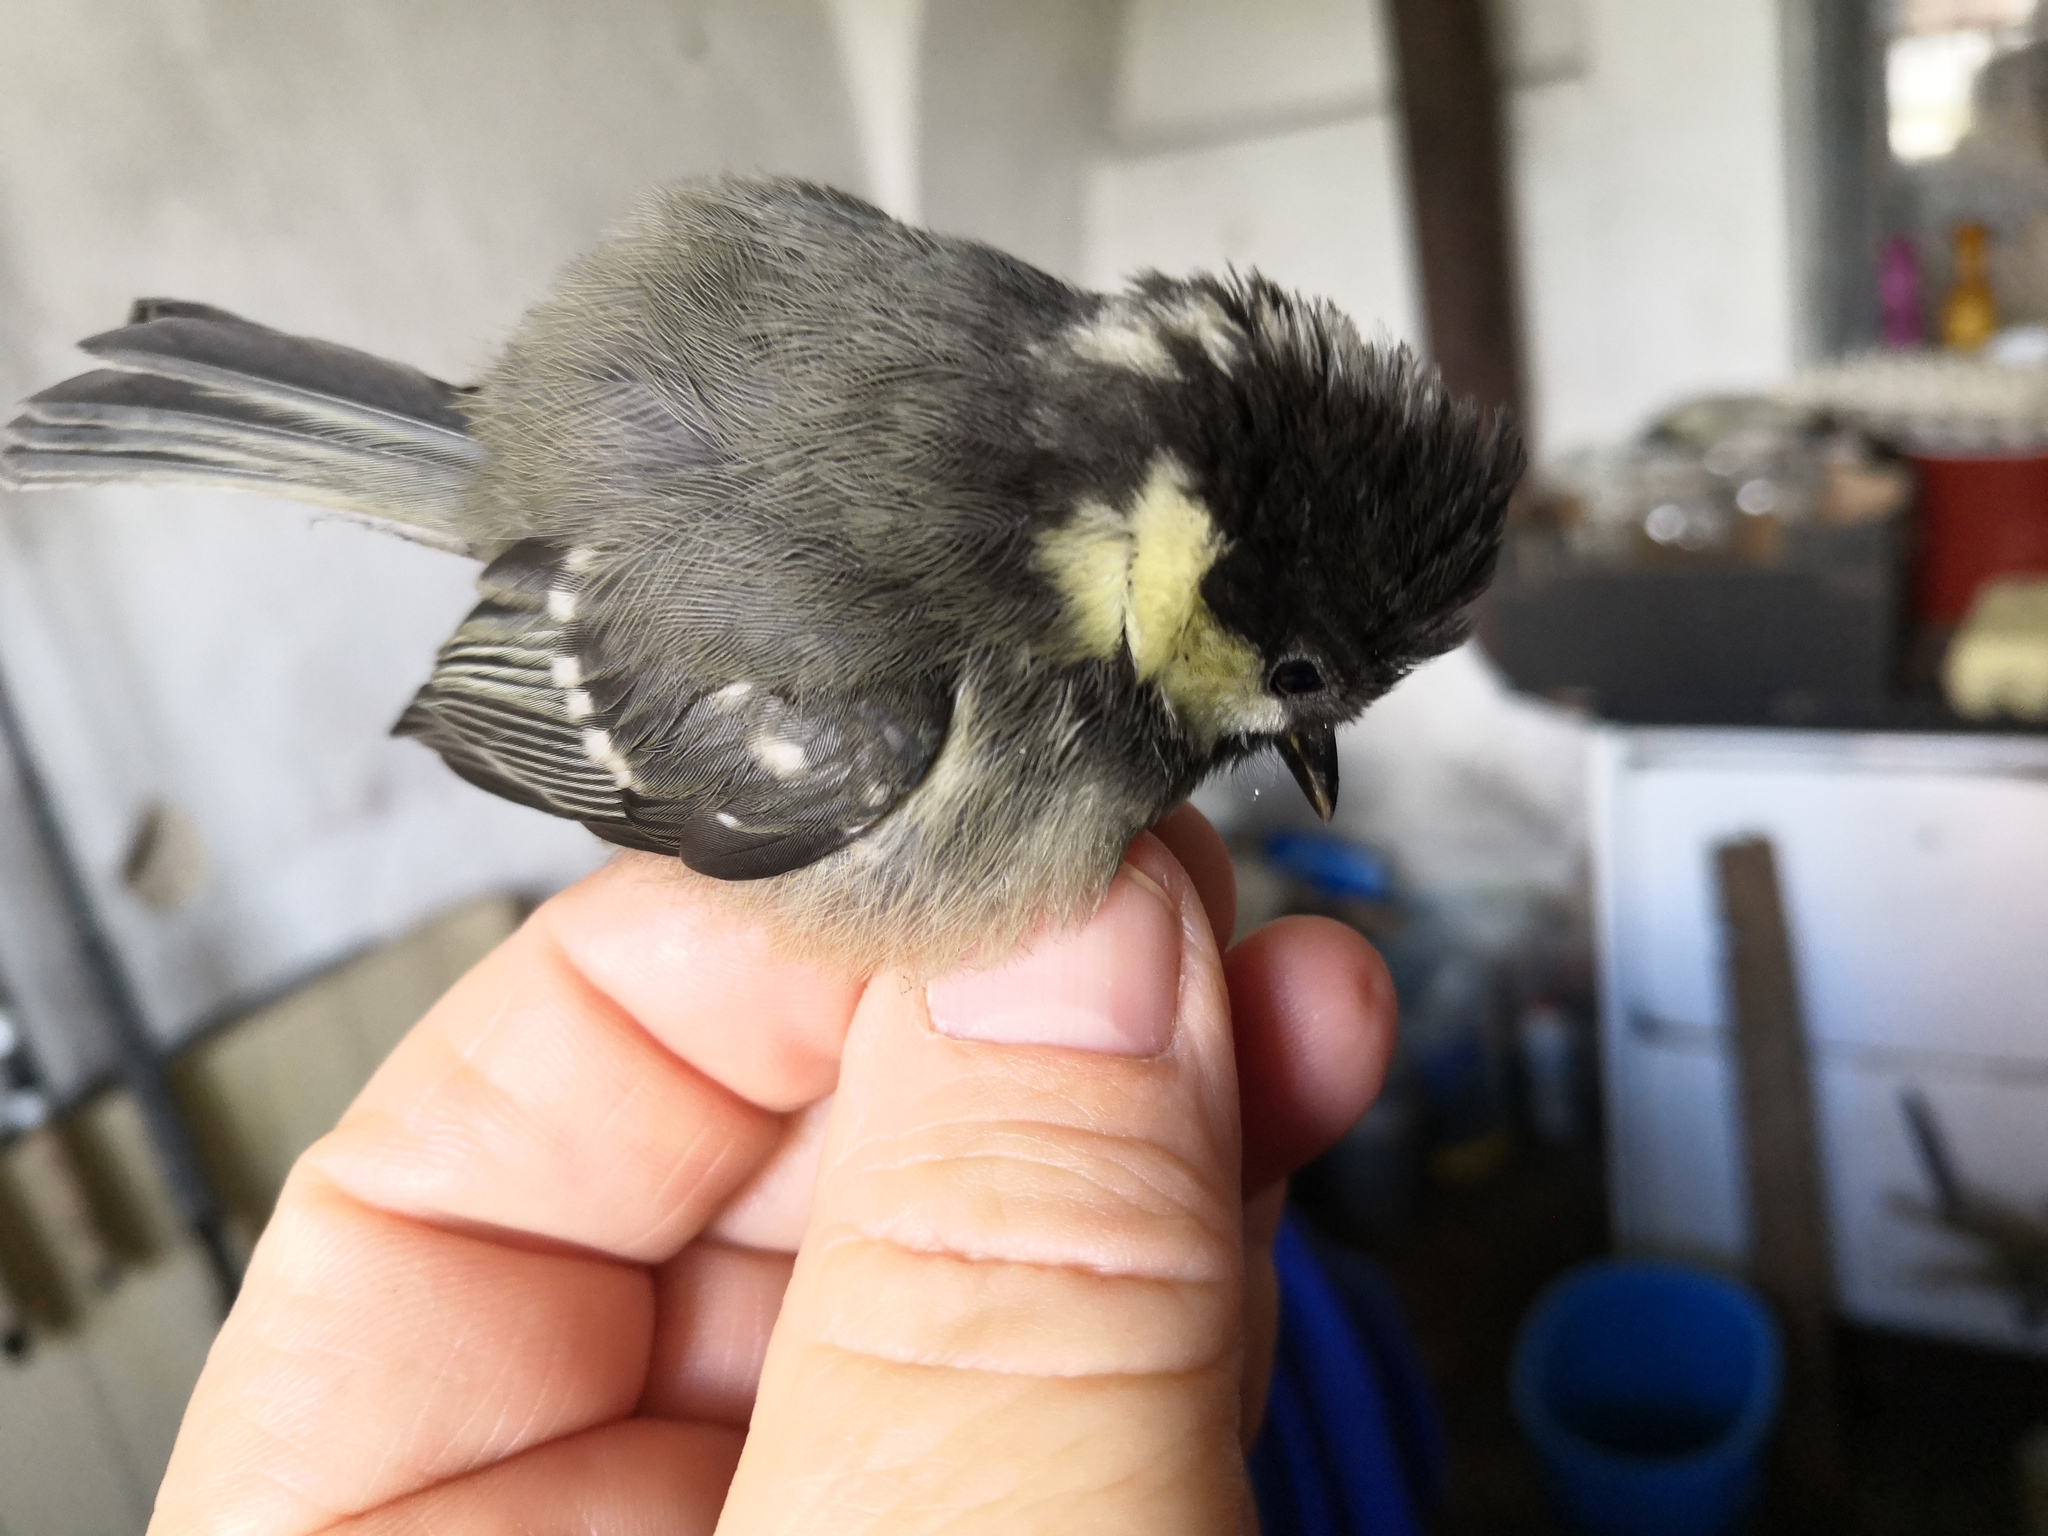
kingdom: Animalia
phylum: Chordata
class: Aves
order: Passeriformes
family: Paridae
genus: Periparus
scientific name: Periparus ater
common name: Coal tit
